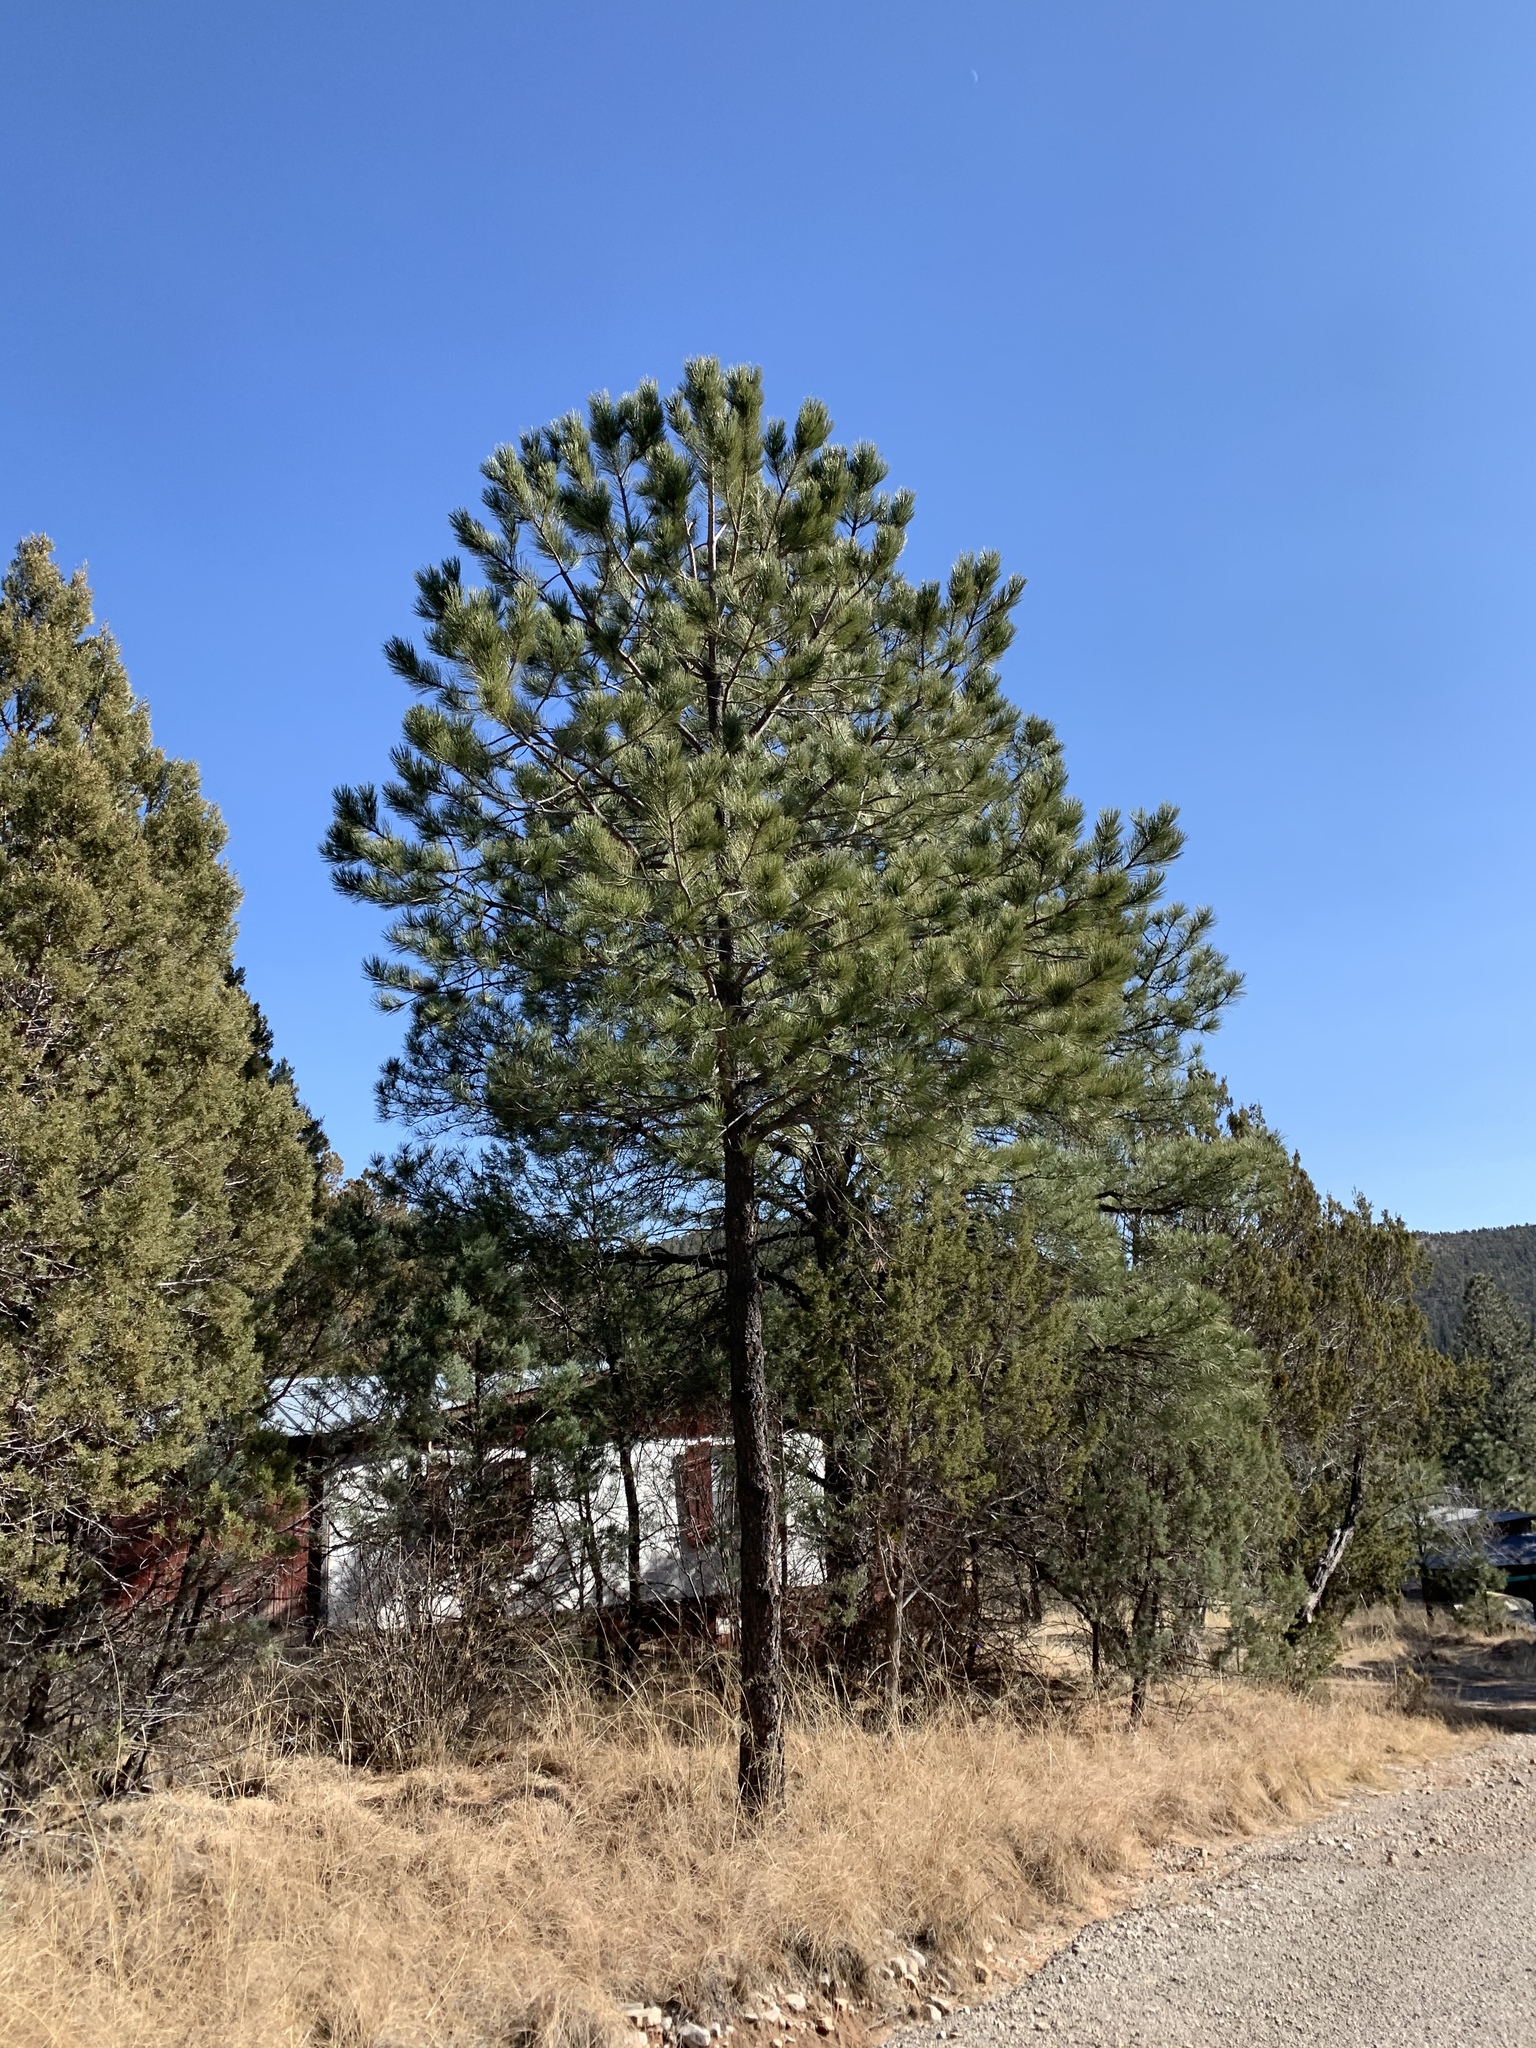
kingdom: Plantae
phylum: Tracheophyta
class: Pinopsida
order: Pinales
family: Pinaceae
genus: Pinus
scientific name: Pinus ponderosa
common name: Western yellow-pine
